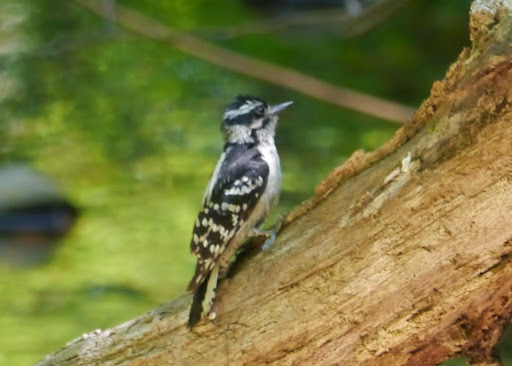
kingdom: Animalia
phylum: Chordata
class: Aves
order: Piciformes
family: Picidae
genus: Dryobates
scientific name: Dryobates pubescens
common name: Downy woodpecker
